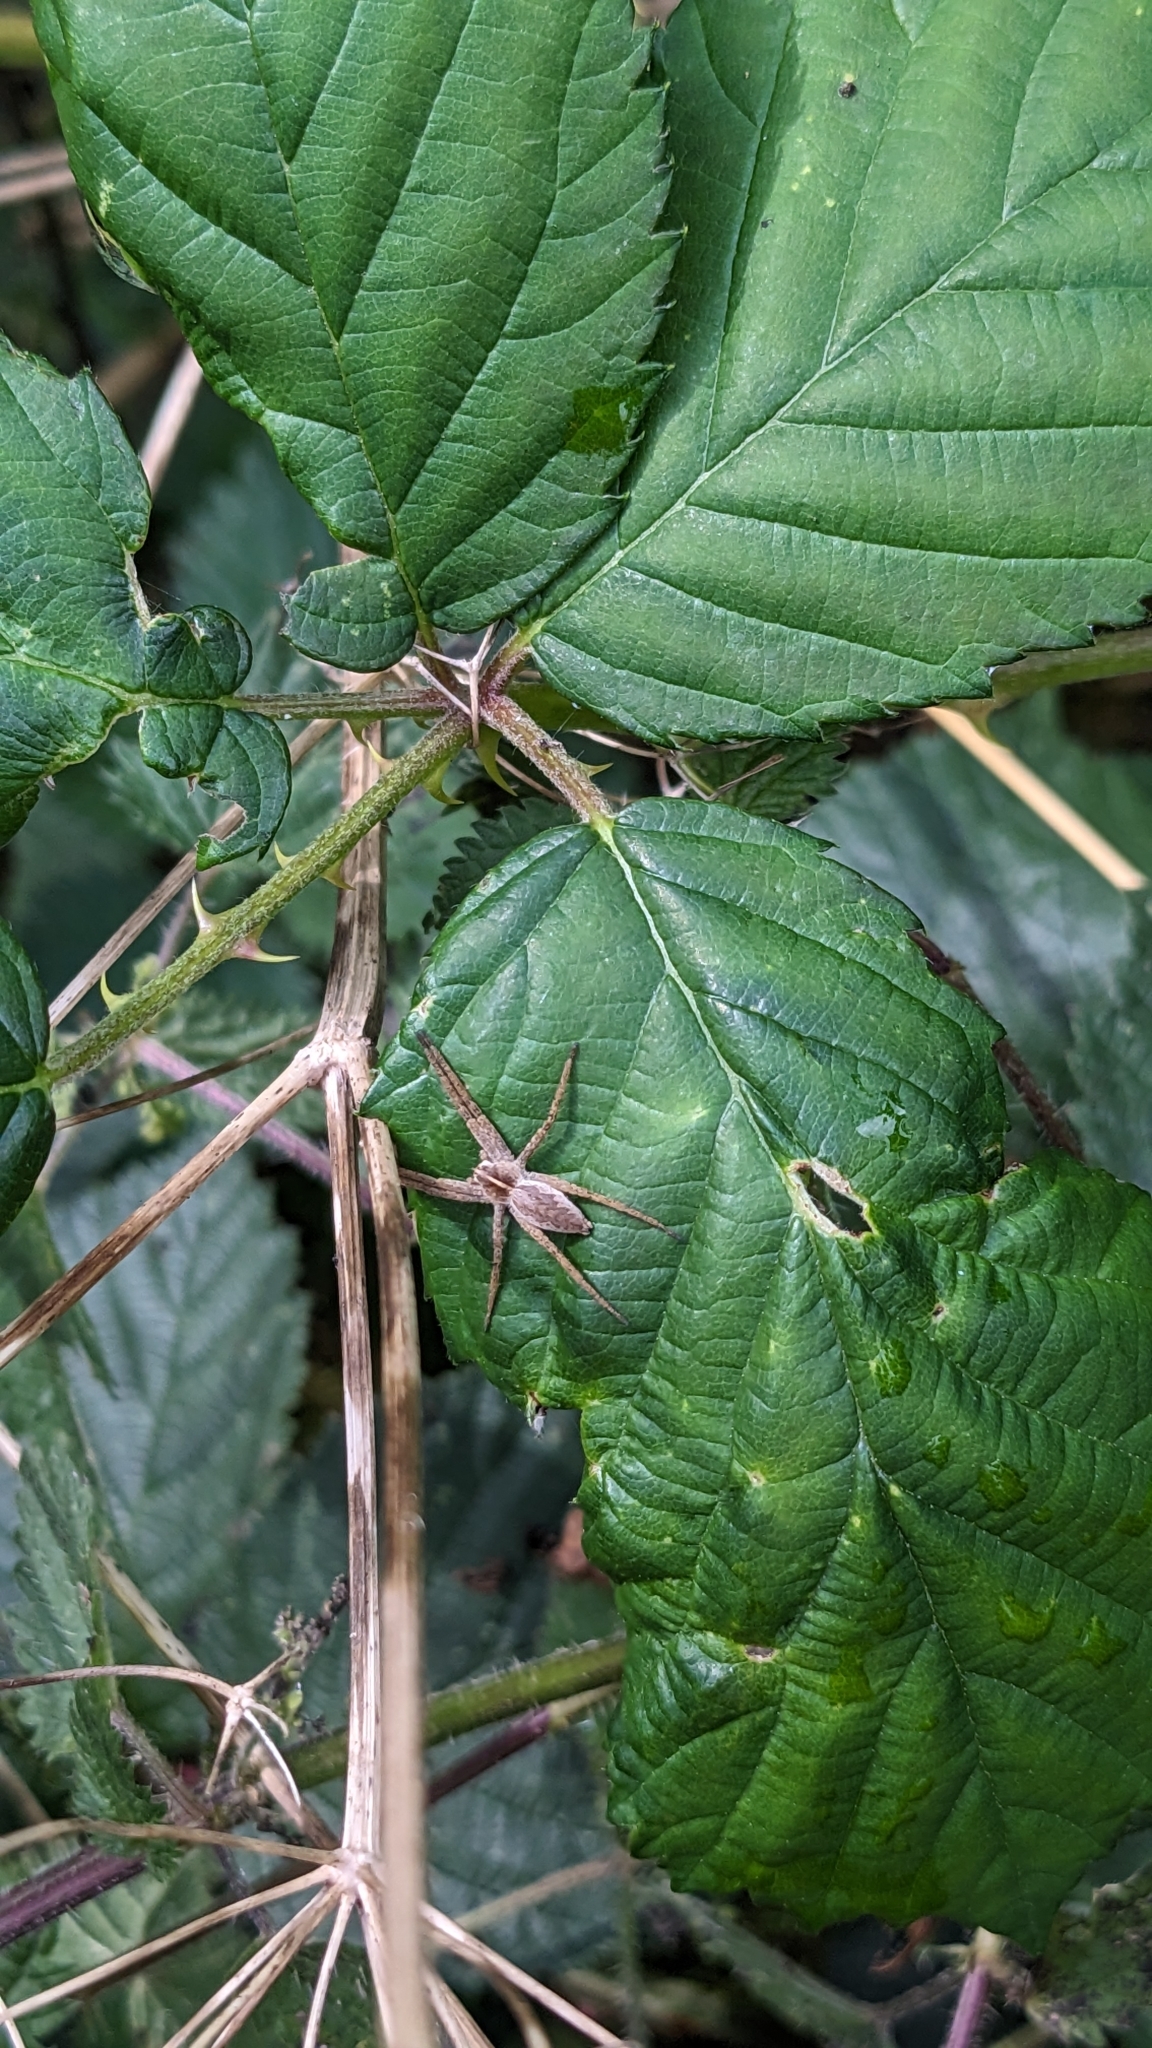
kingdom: Animalia
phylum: Arthropoda
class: Arachnida
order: Araneae
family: Pisauridae
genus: Pisaura
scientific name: Pisaura mirabilis
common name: Tent spider
